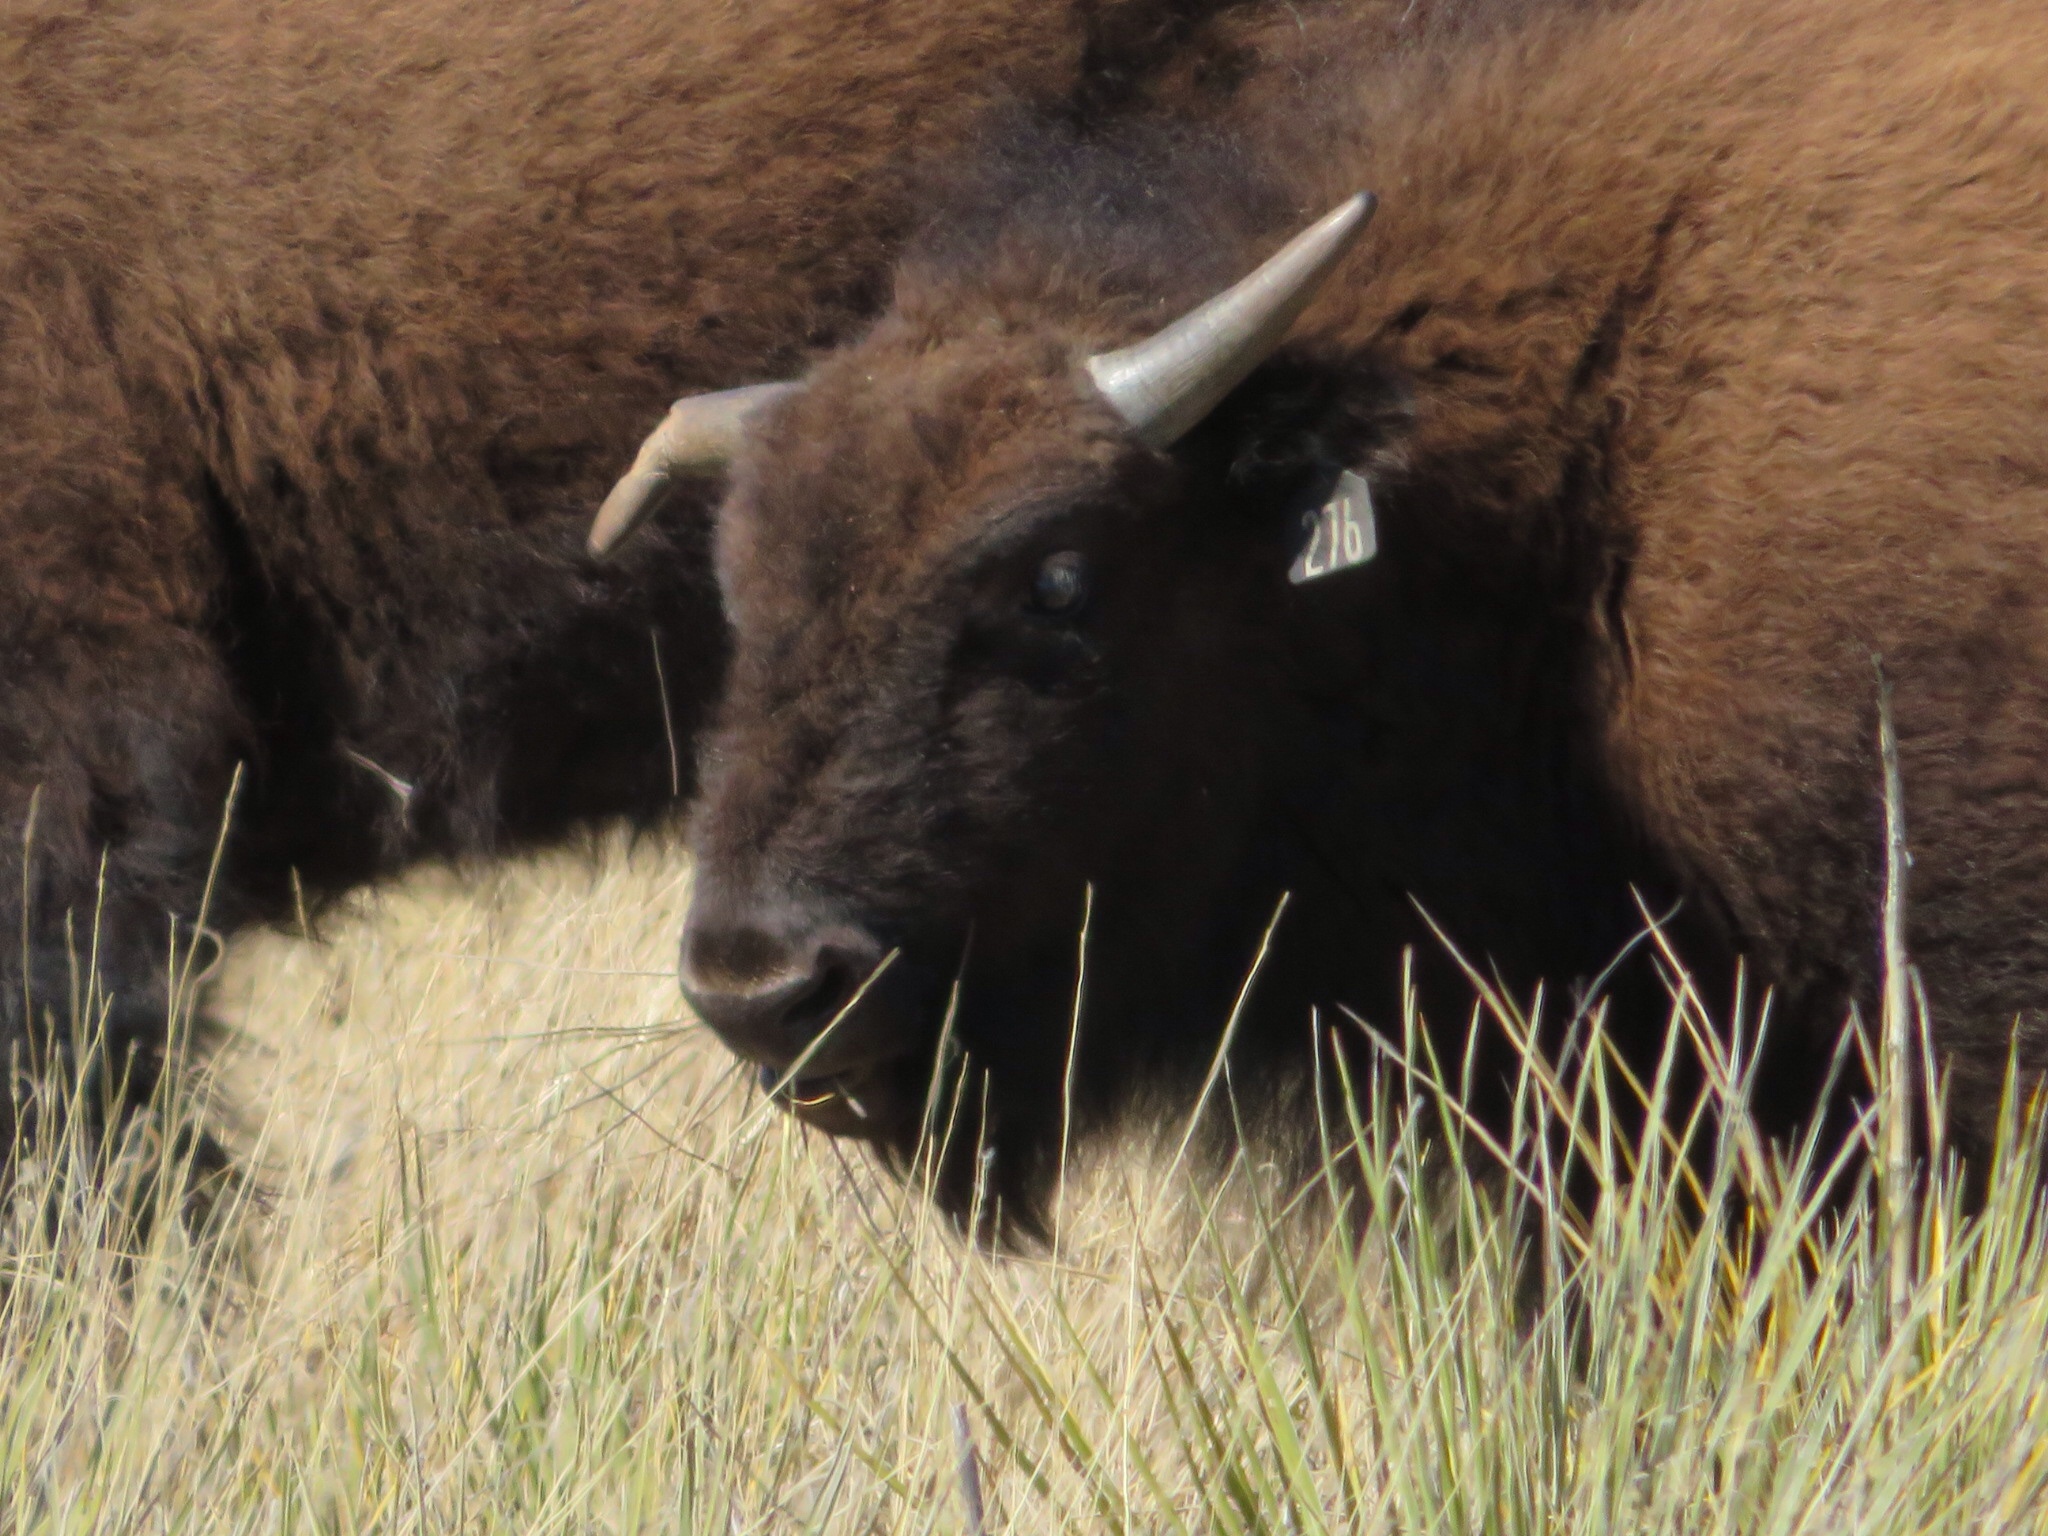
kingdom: Animalia
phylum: Chordata
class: Mammalia
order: Artiodactyla
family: Bovidae
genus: Bison
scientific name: Bison bison
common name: American bison
